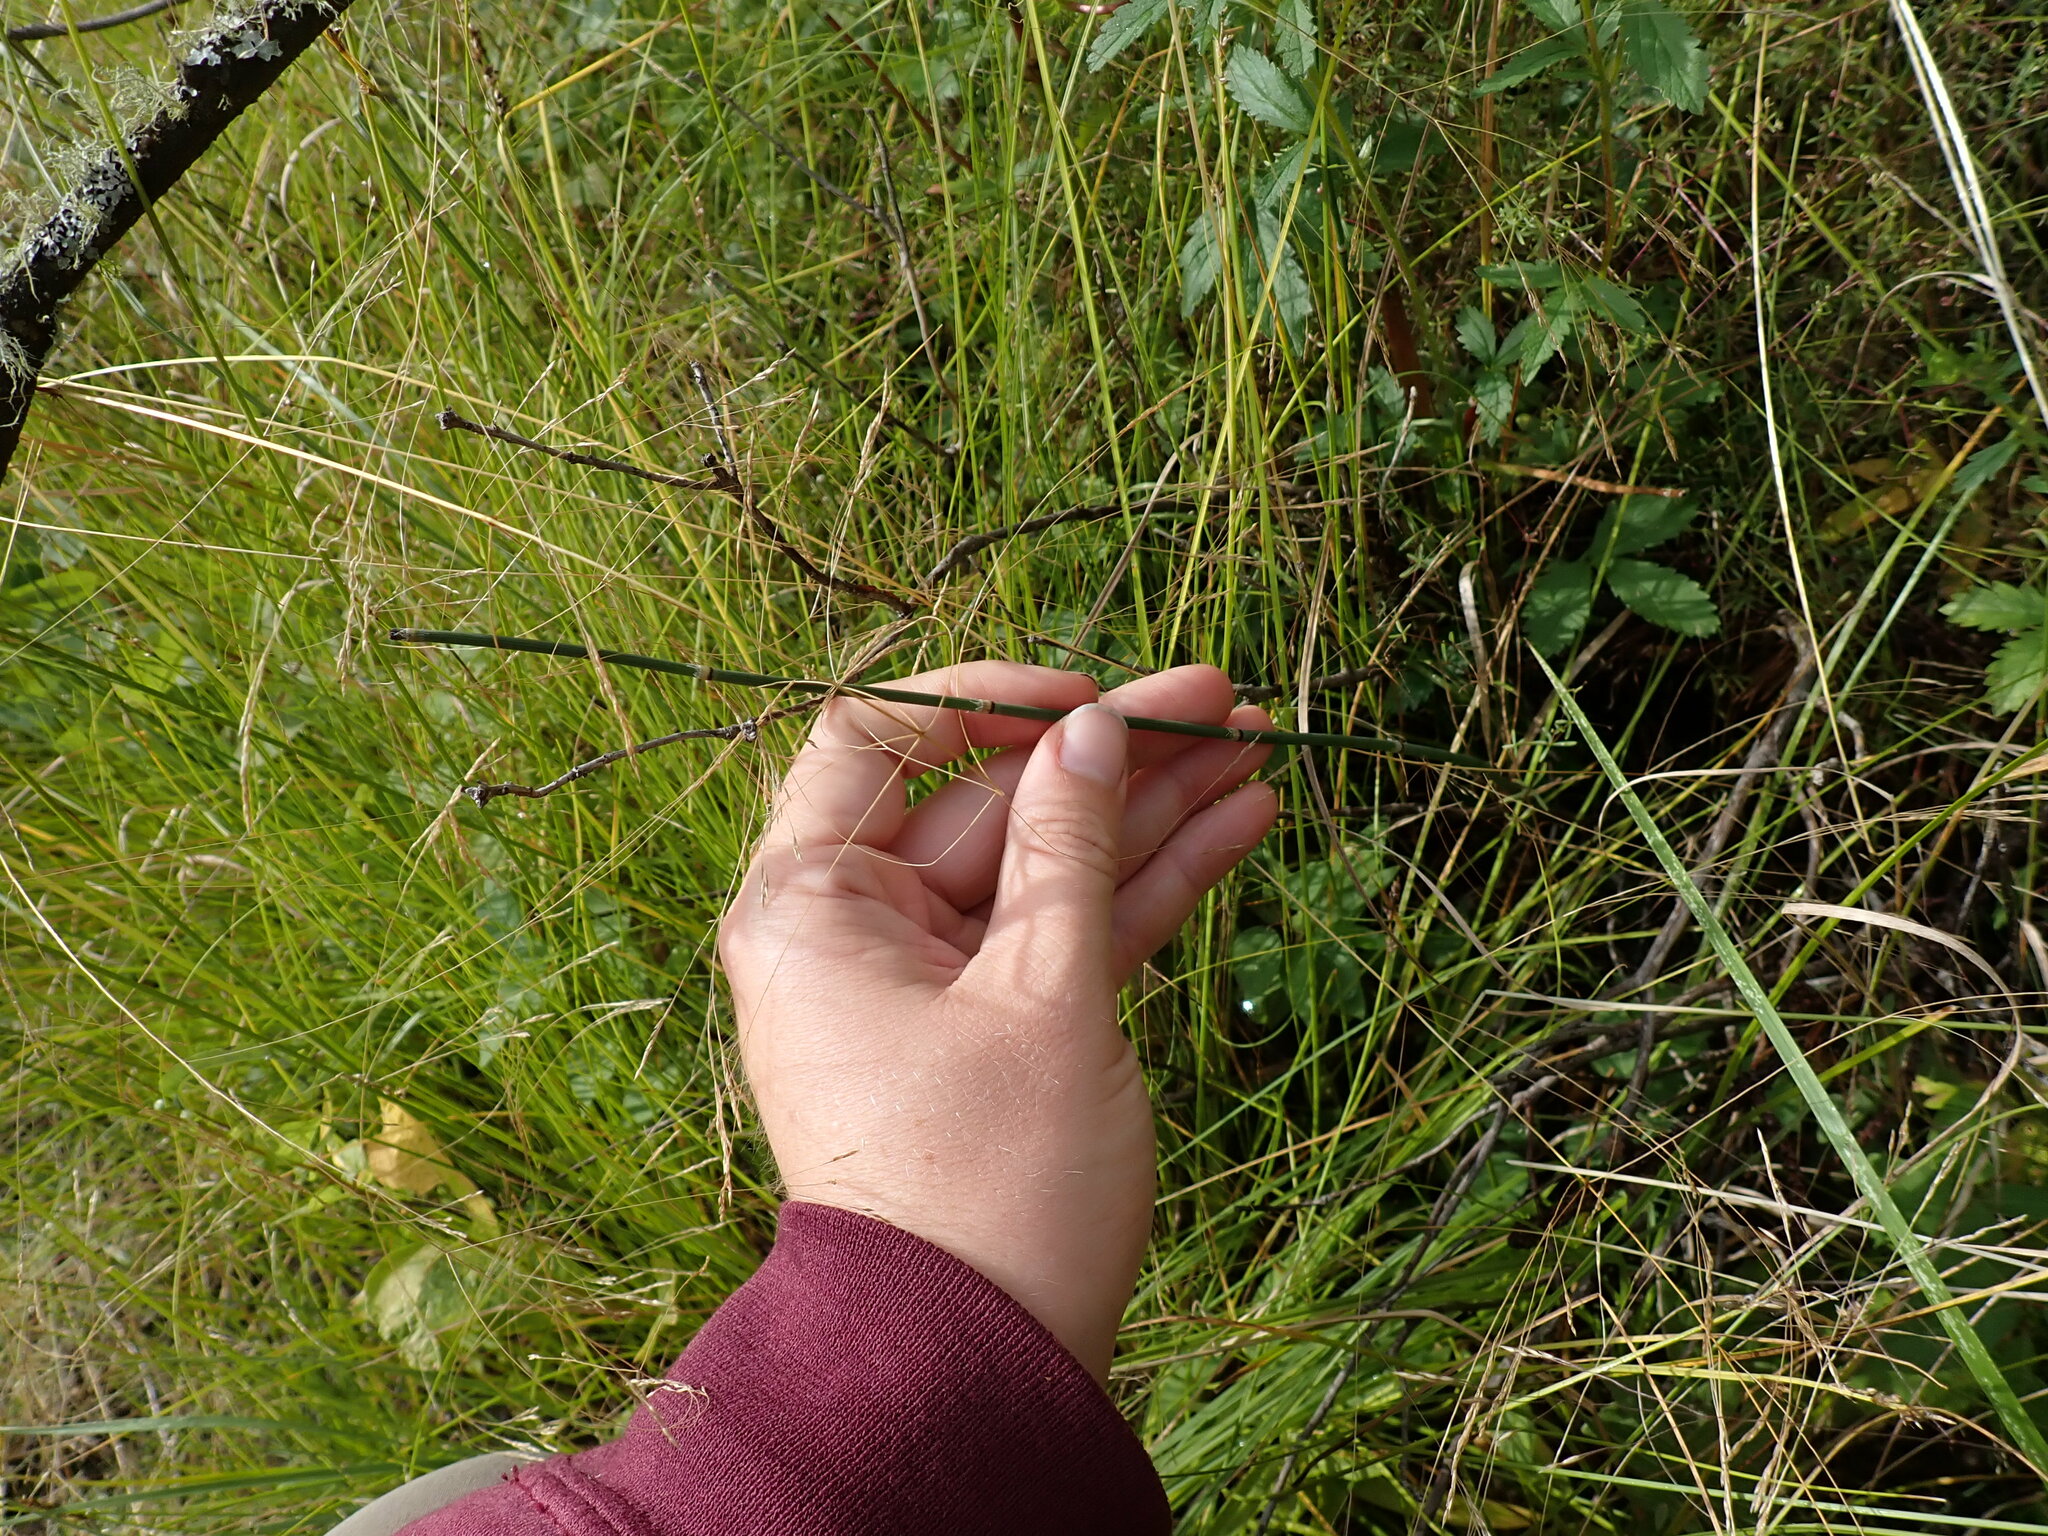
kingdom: Plantae
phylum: Tracheophyta
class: Polypodiopsida
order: Equisetales
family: Equisetaceae
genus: Equisetum
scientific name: Equisetum hyemale
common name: Rough horsetail
